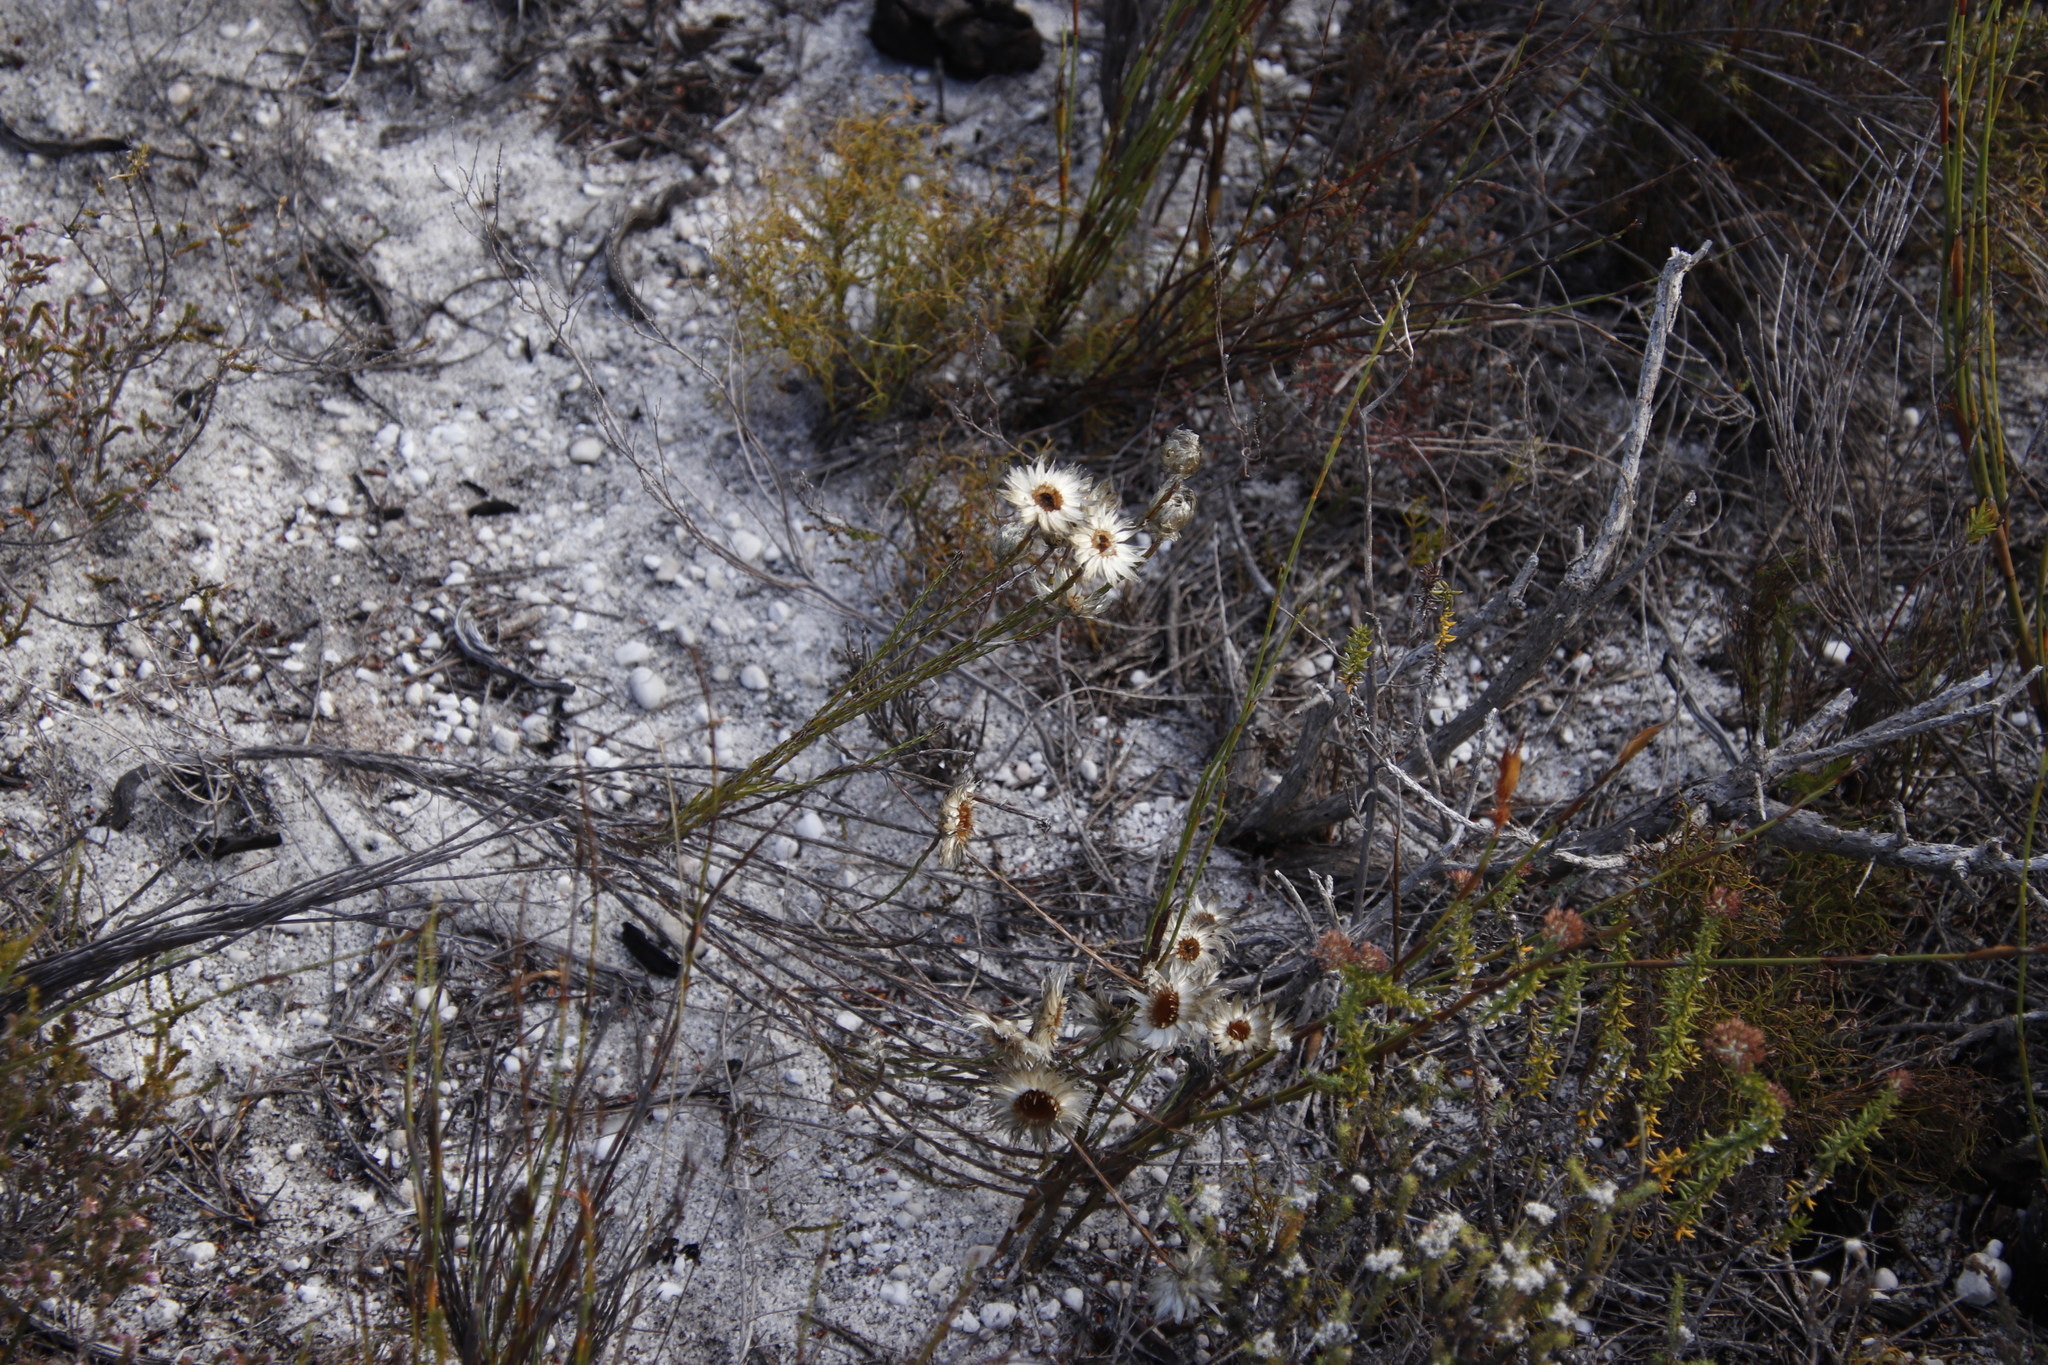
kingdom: Plantae
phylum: Tracheophyta
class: Magnoliopsida
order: Asterales
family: Asteraceae
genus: Edmondia
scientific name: Edmondia sesamoides
